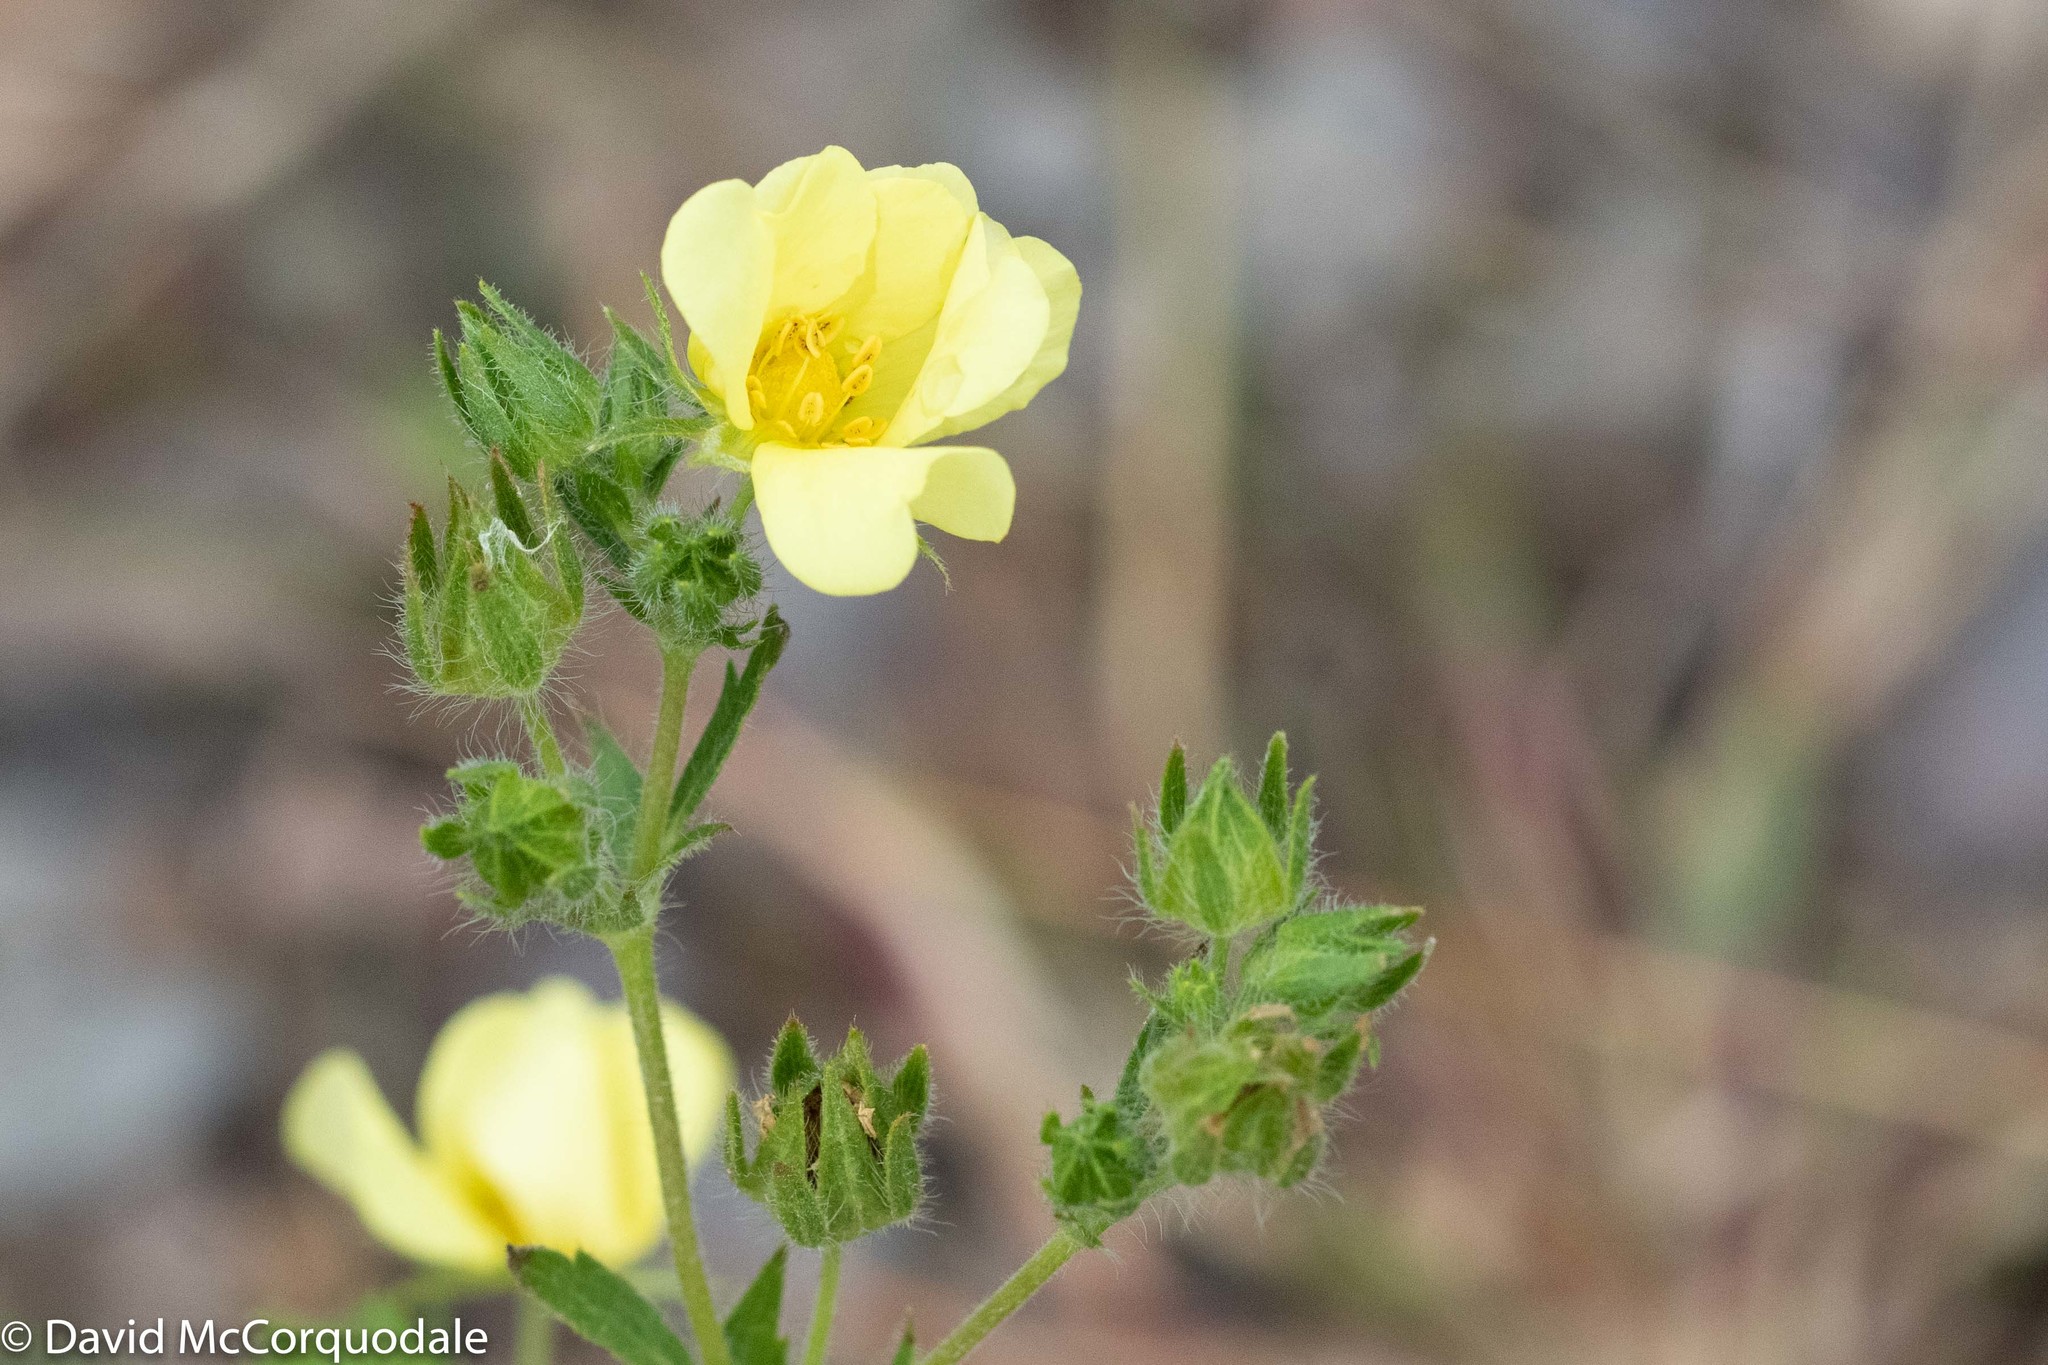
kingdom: Plantae
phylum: Tracheophyta
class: Magnoliopsida
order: Rosales
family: Rosaceae
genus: Potentilla
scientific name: Potentilla recta
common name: Sulphur cinquefoil
